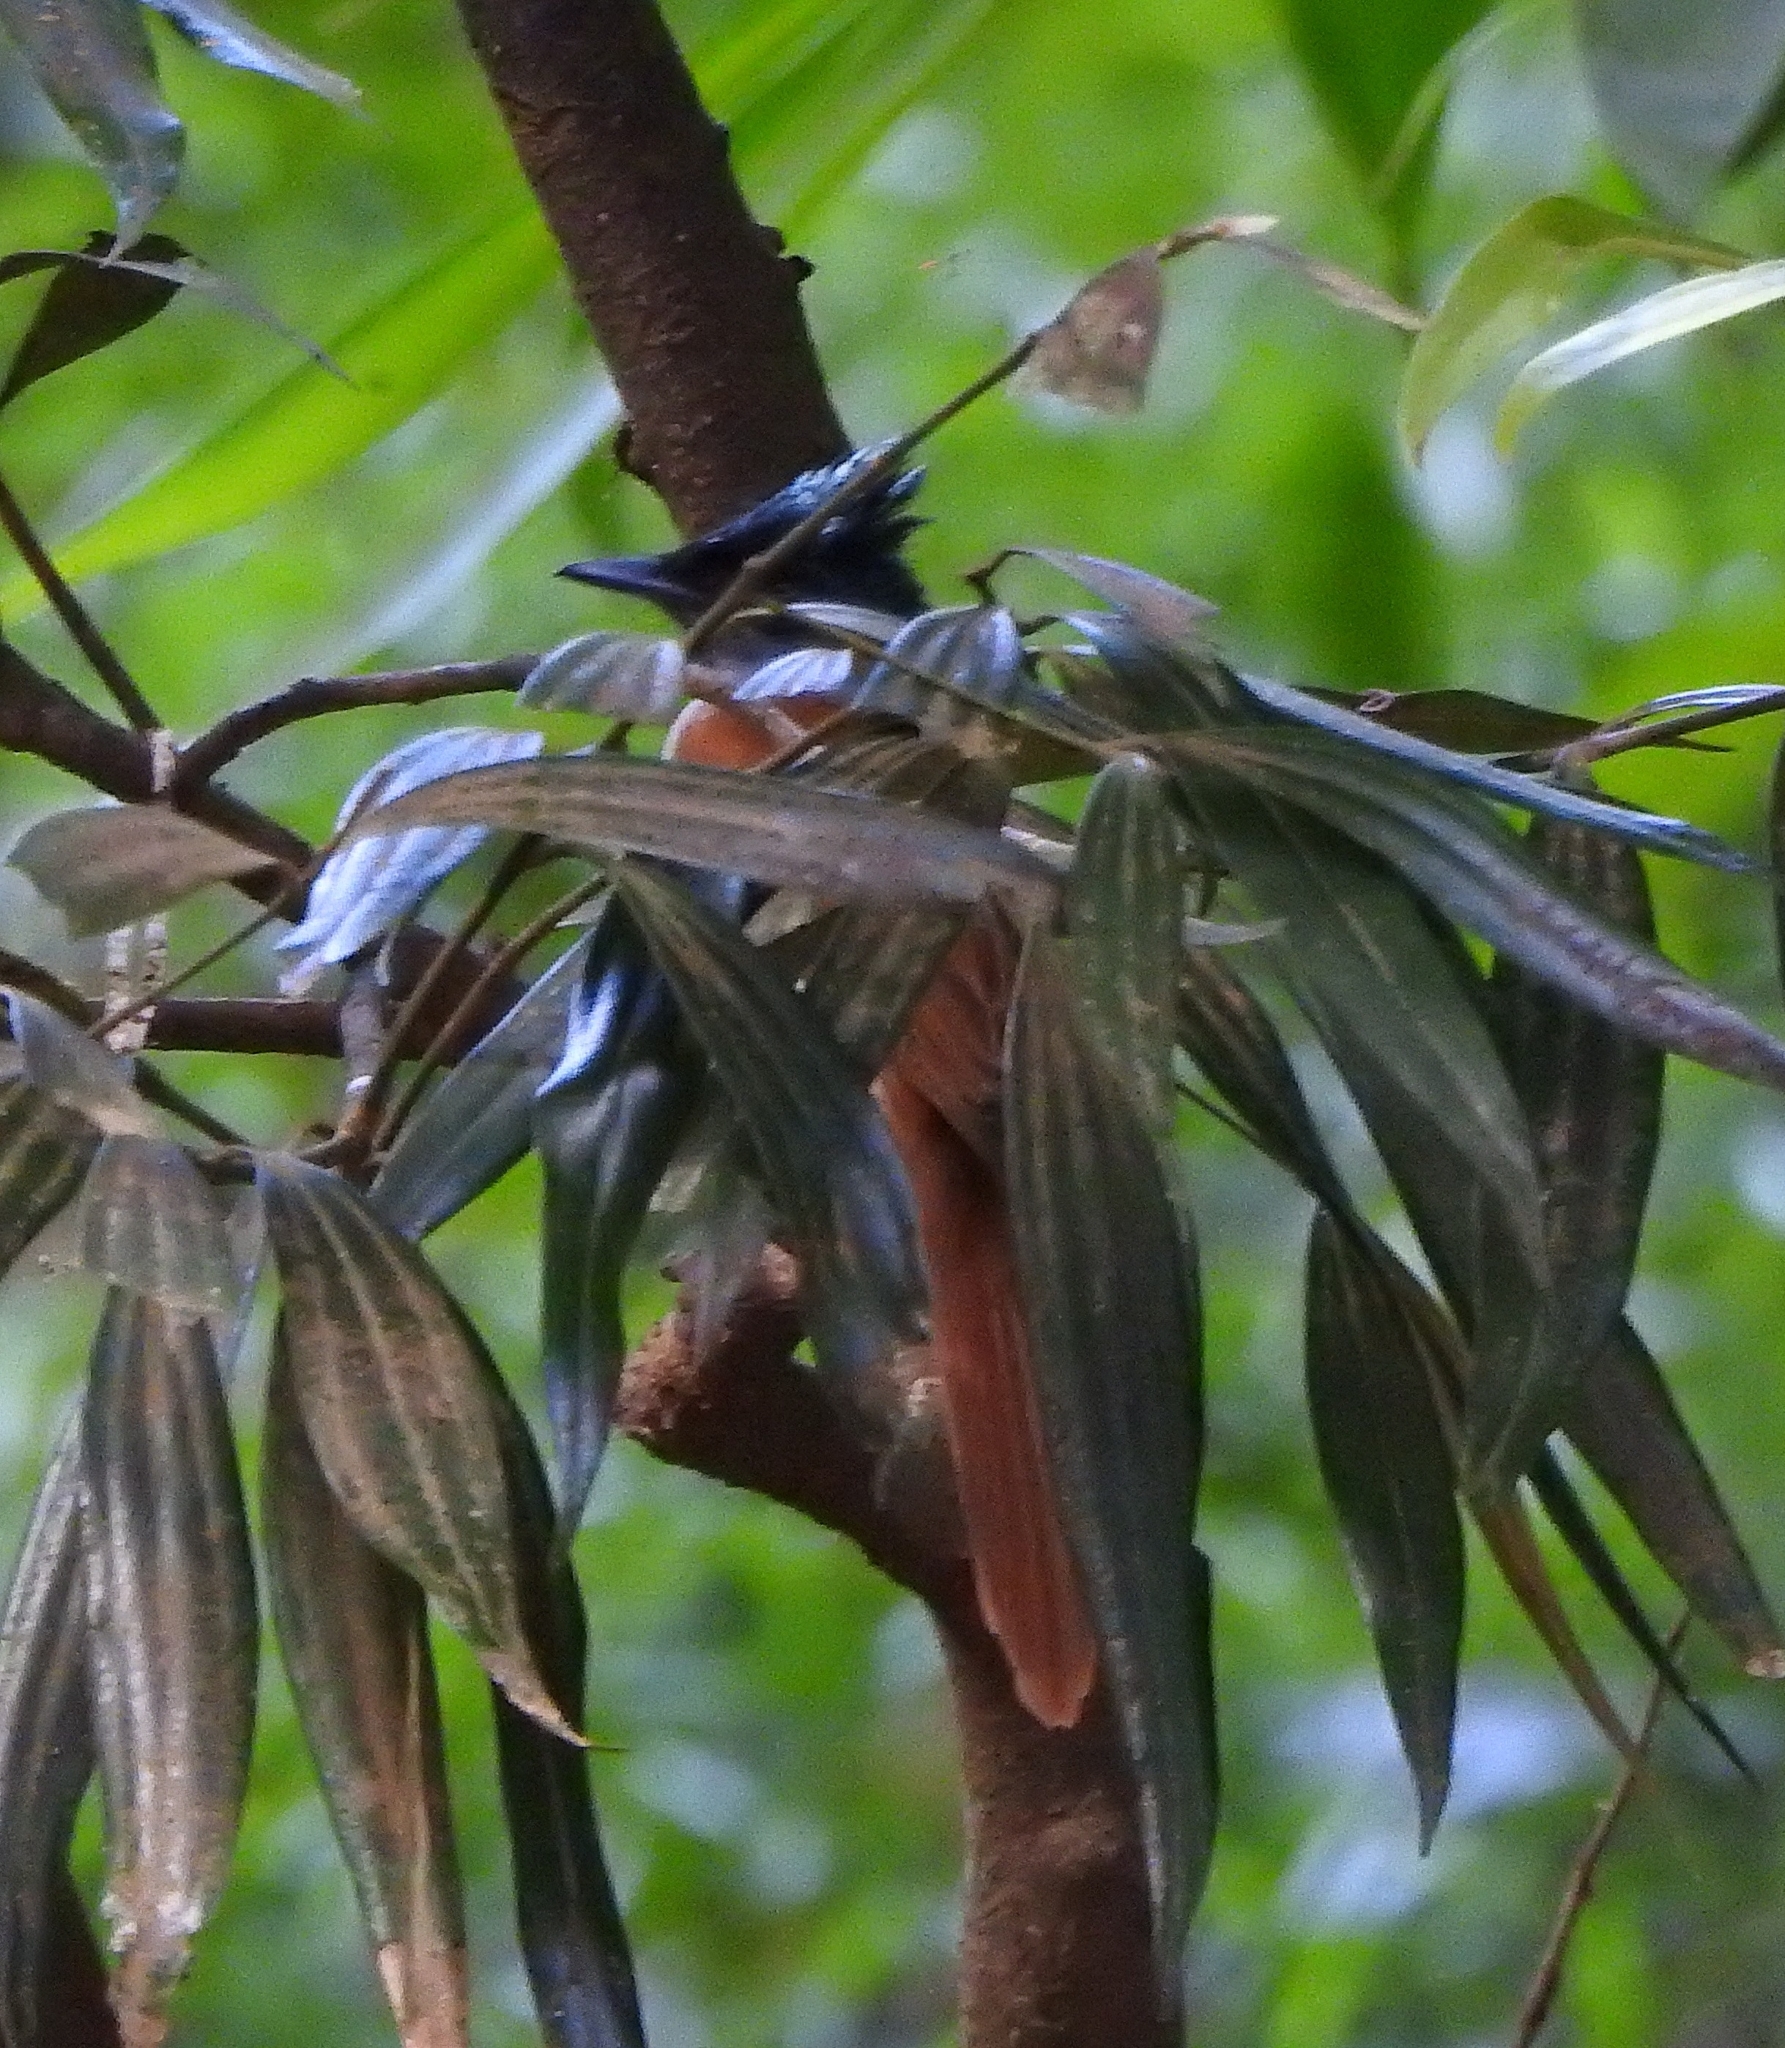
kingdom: Animalia
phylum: Chordata
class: Aves
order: Passeriformes
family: Monarchidae
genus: Terpsiphone
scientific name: Terpsiphone paradisi
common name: Indian paradise flycatcher
